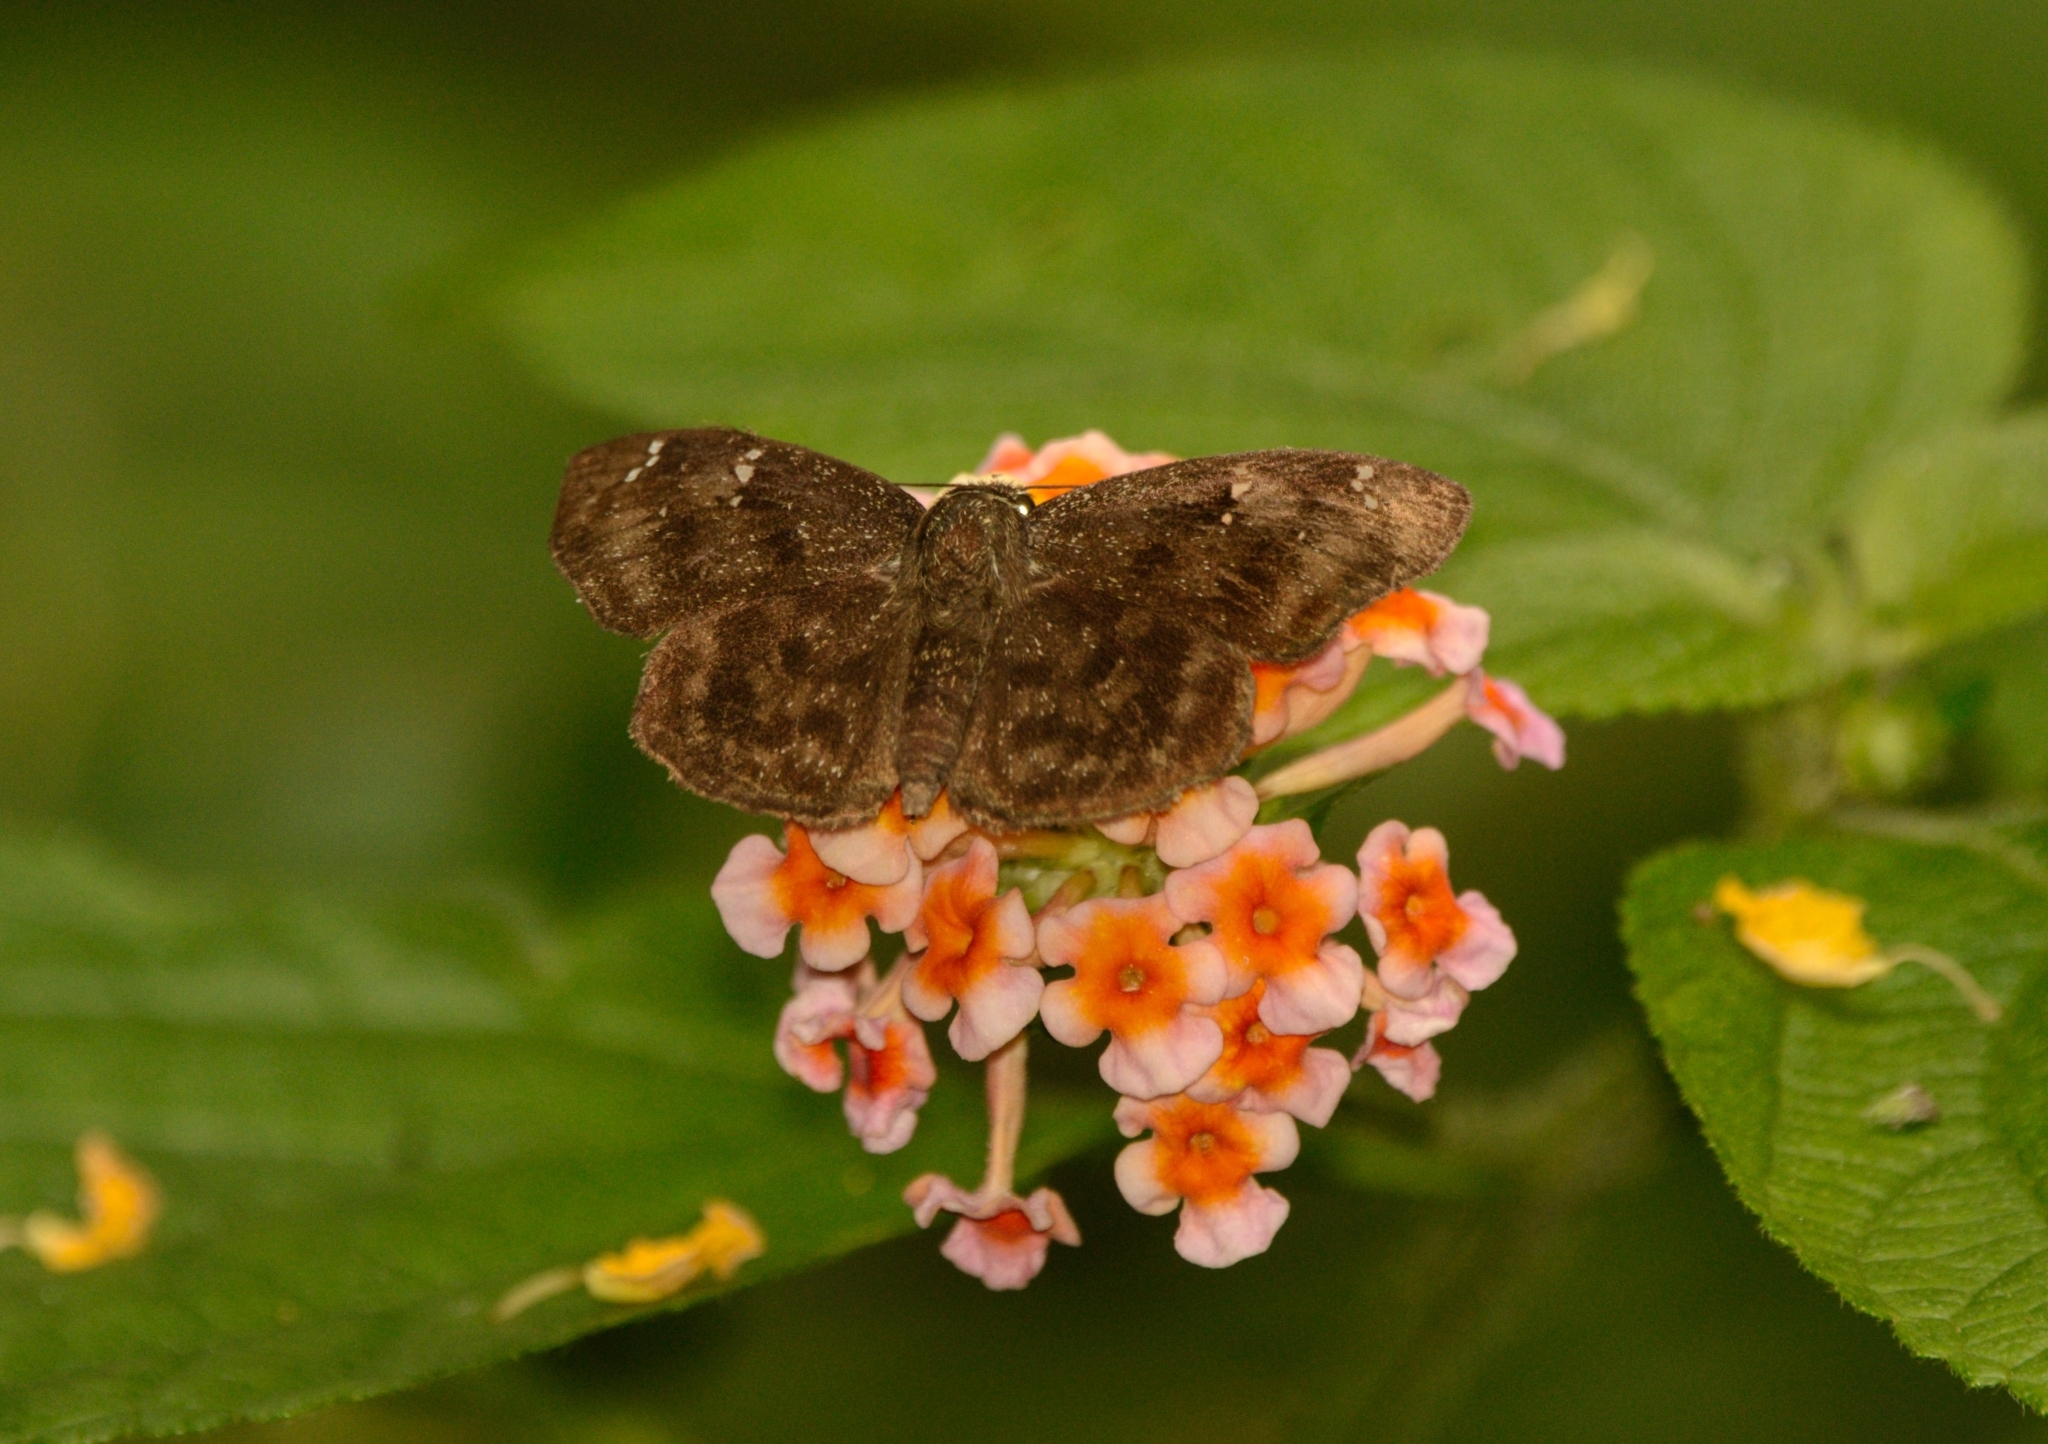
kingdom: Animalia
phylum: Arthropoda
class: Insecta
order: Lepidoptera
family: Hesperiidae
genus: Sarangesa
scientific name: Sarangesa dasahara
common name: Common small flat
